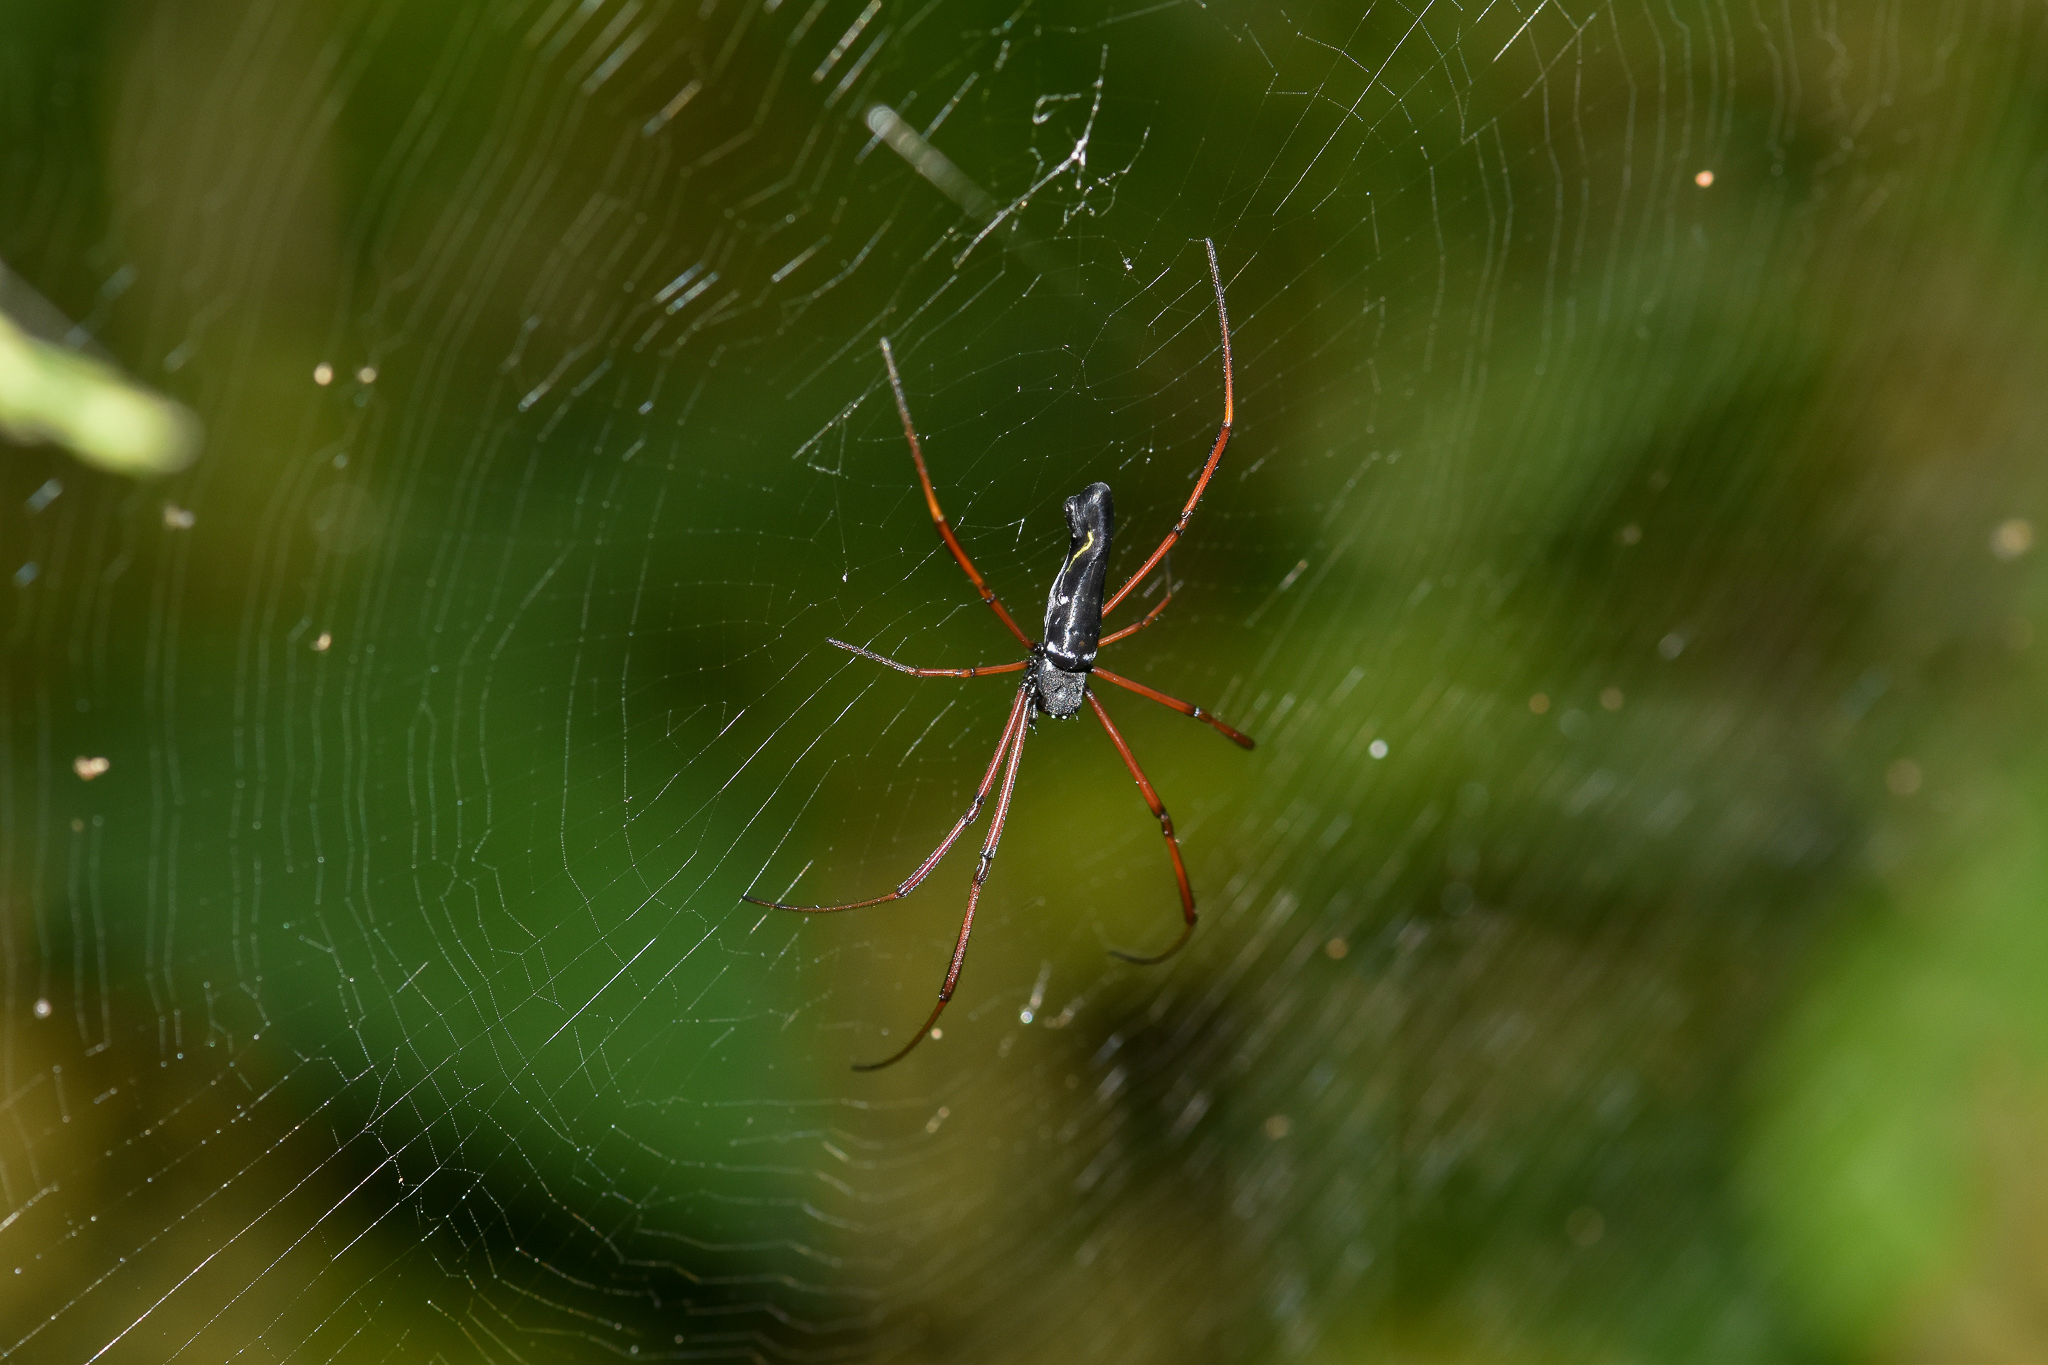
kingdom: Animalia
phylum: Arthropoda
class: Arachnida
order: Araneae
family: Araneidae
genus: Nephila
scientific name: Nephila kuhli
